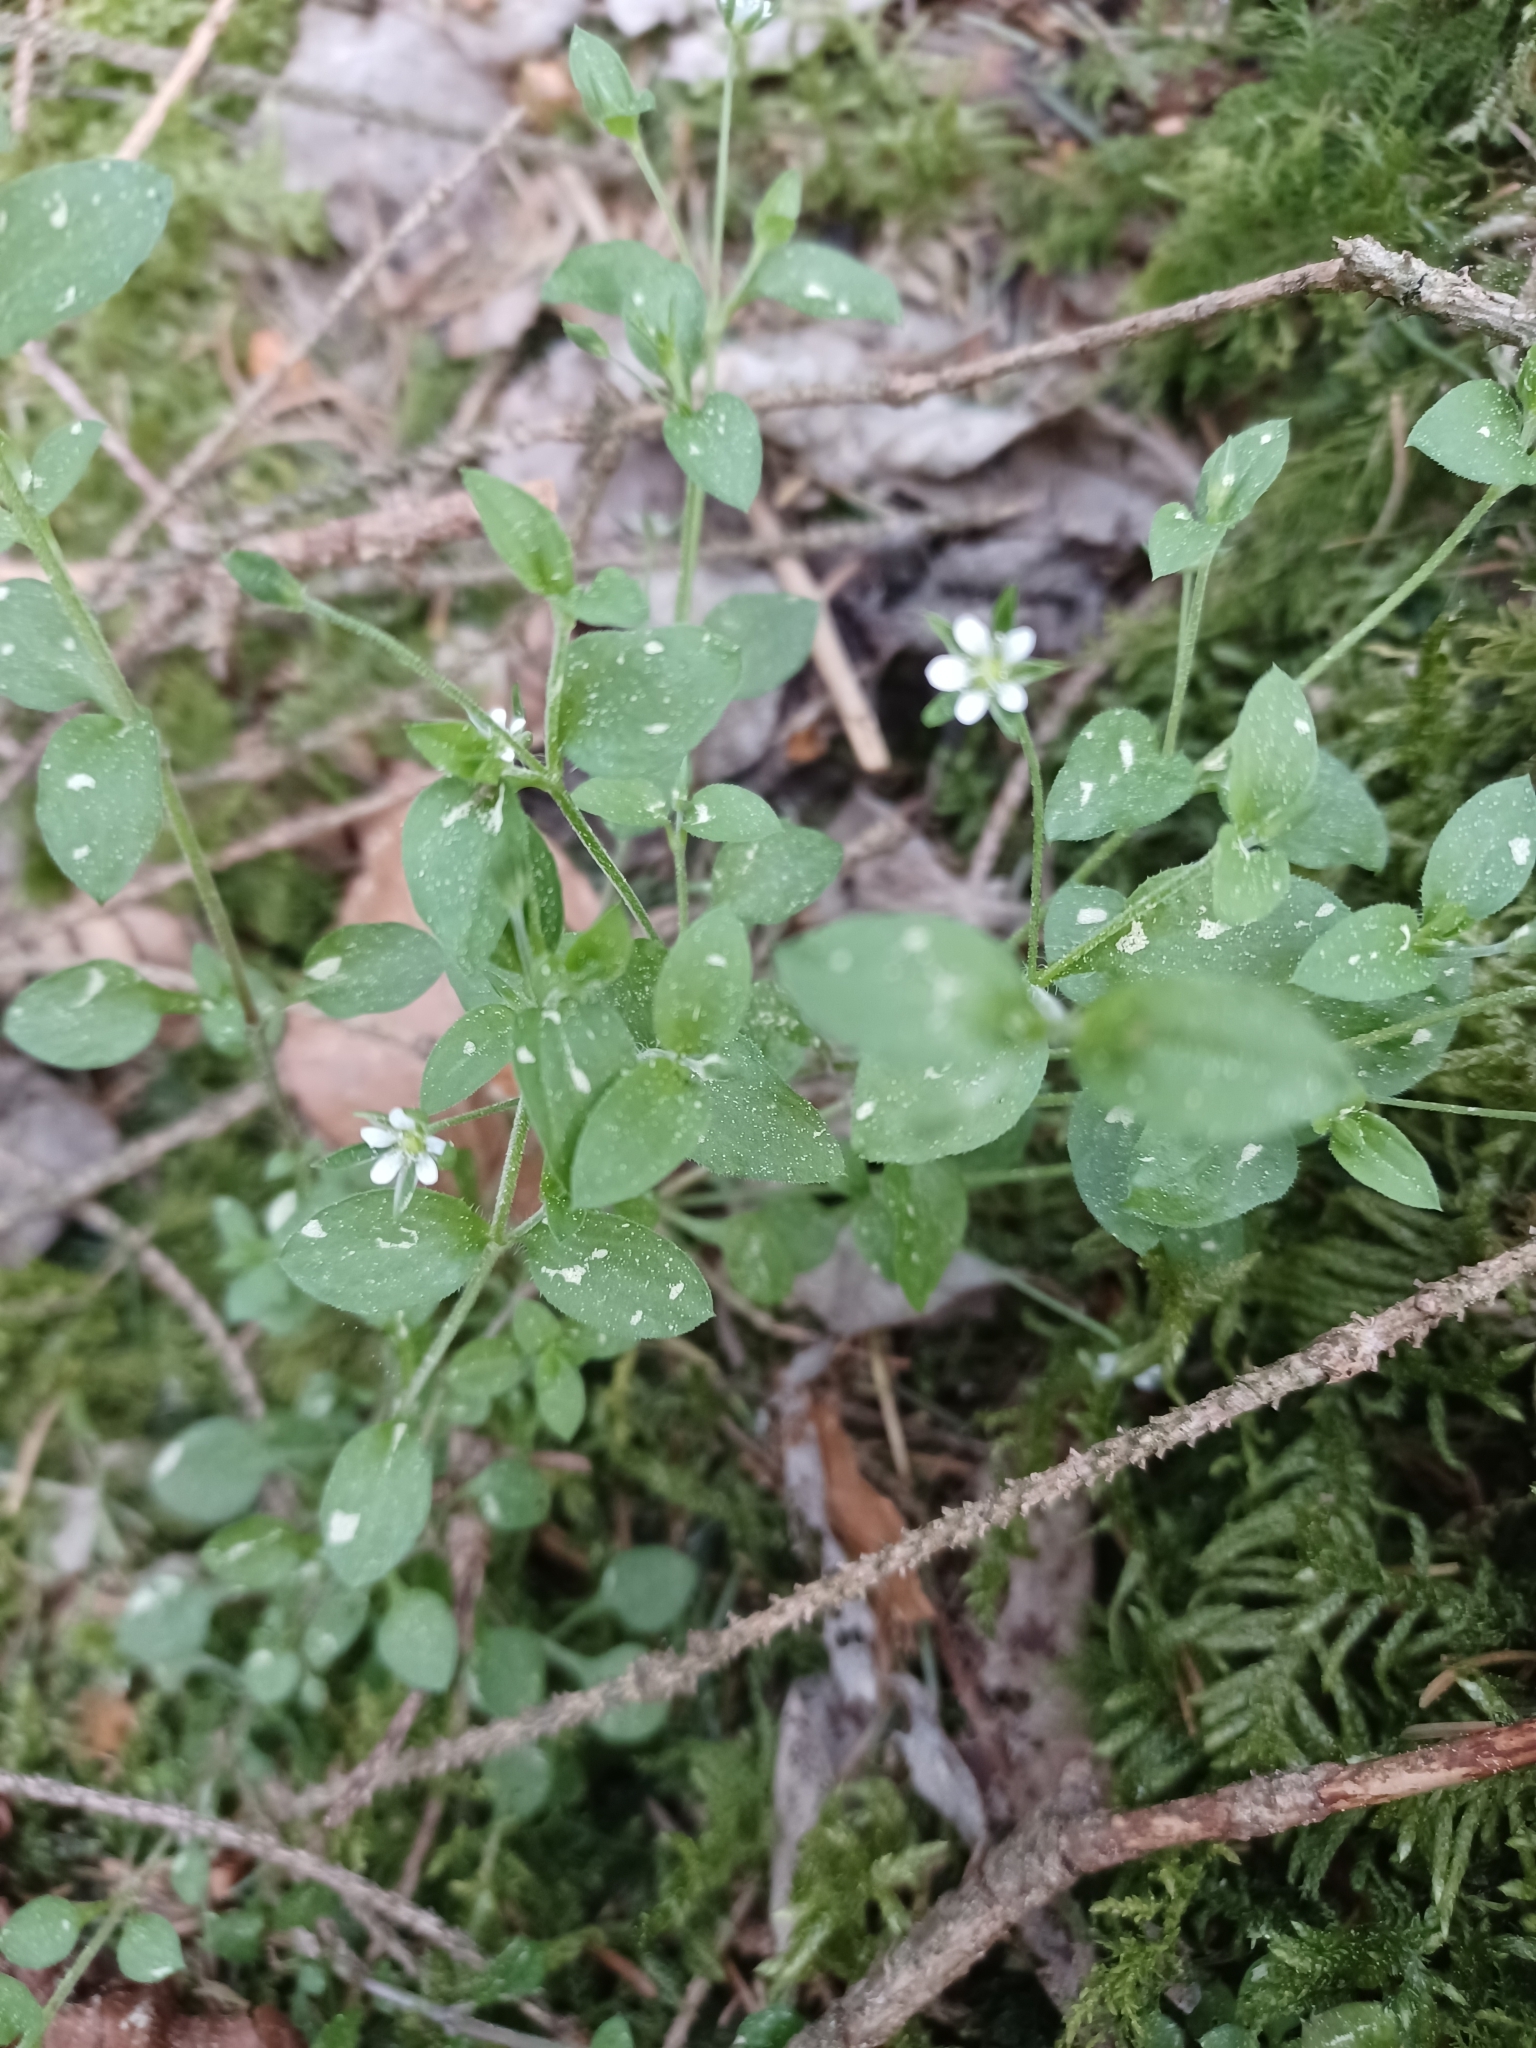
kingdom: Plantae
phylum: Tracheophyta
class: Magnoliopsida
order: Caryophyllales
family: Caryophyllaceae
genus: Moehringia
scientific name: Moehringia trinervia
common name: Three-nerved sandwort
